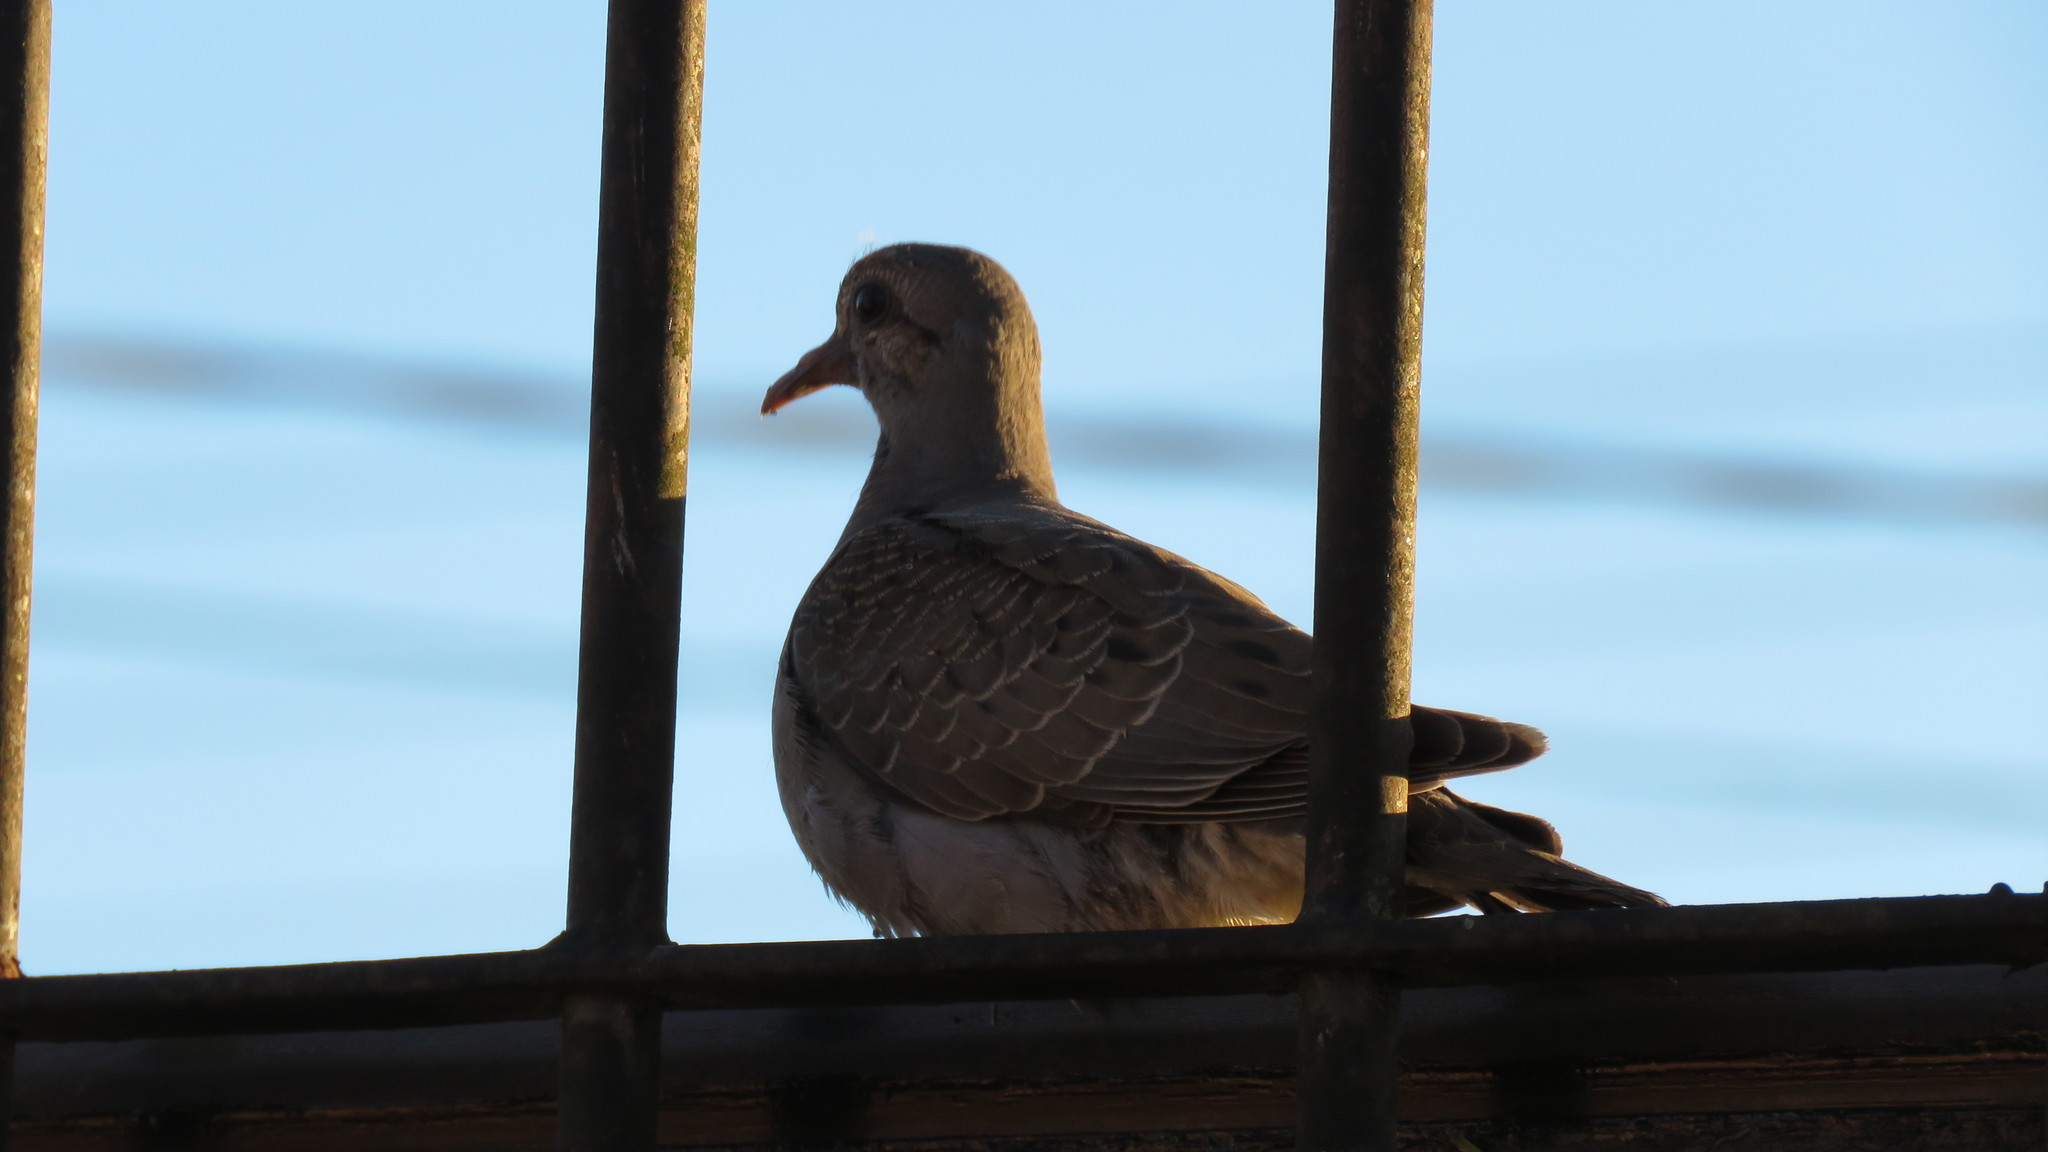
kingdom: Animalia
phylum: Chordata
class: Aves
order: Columbiformes
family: Columbidae
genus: Zenaida
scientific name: Zenaida auriculata
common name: Eared dove
